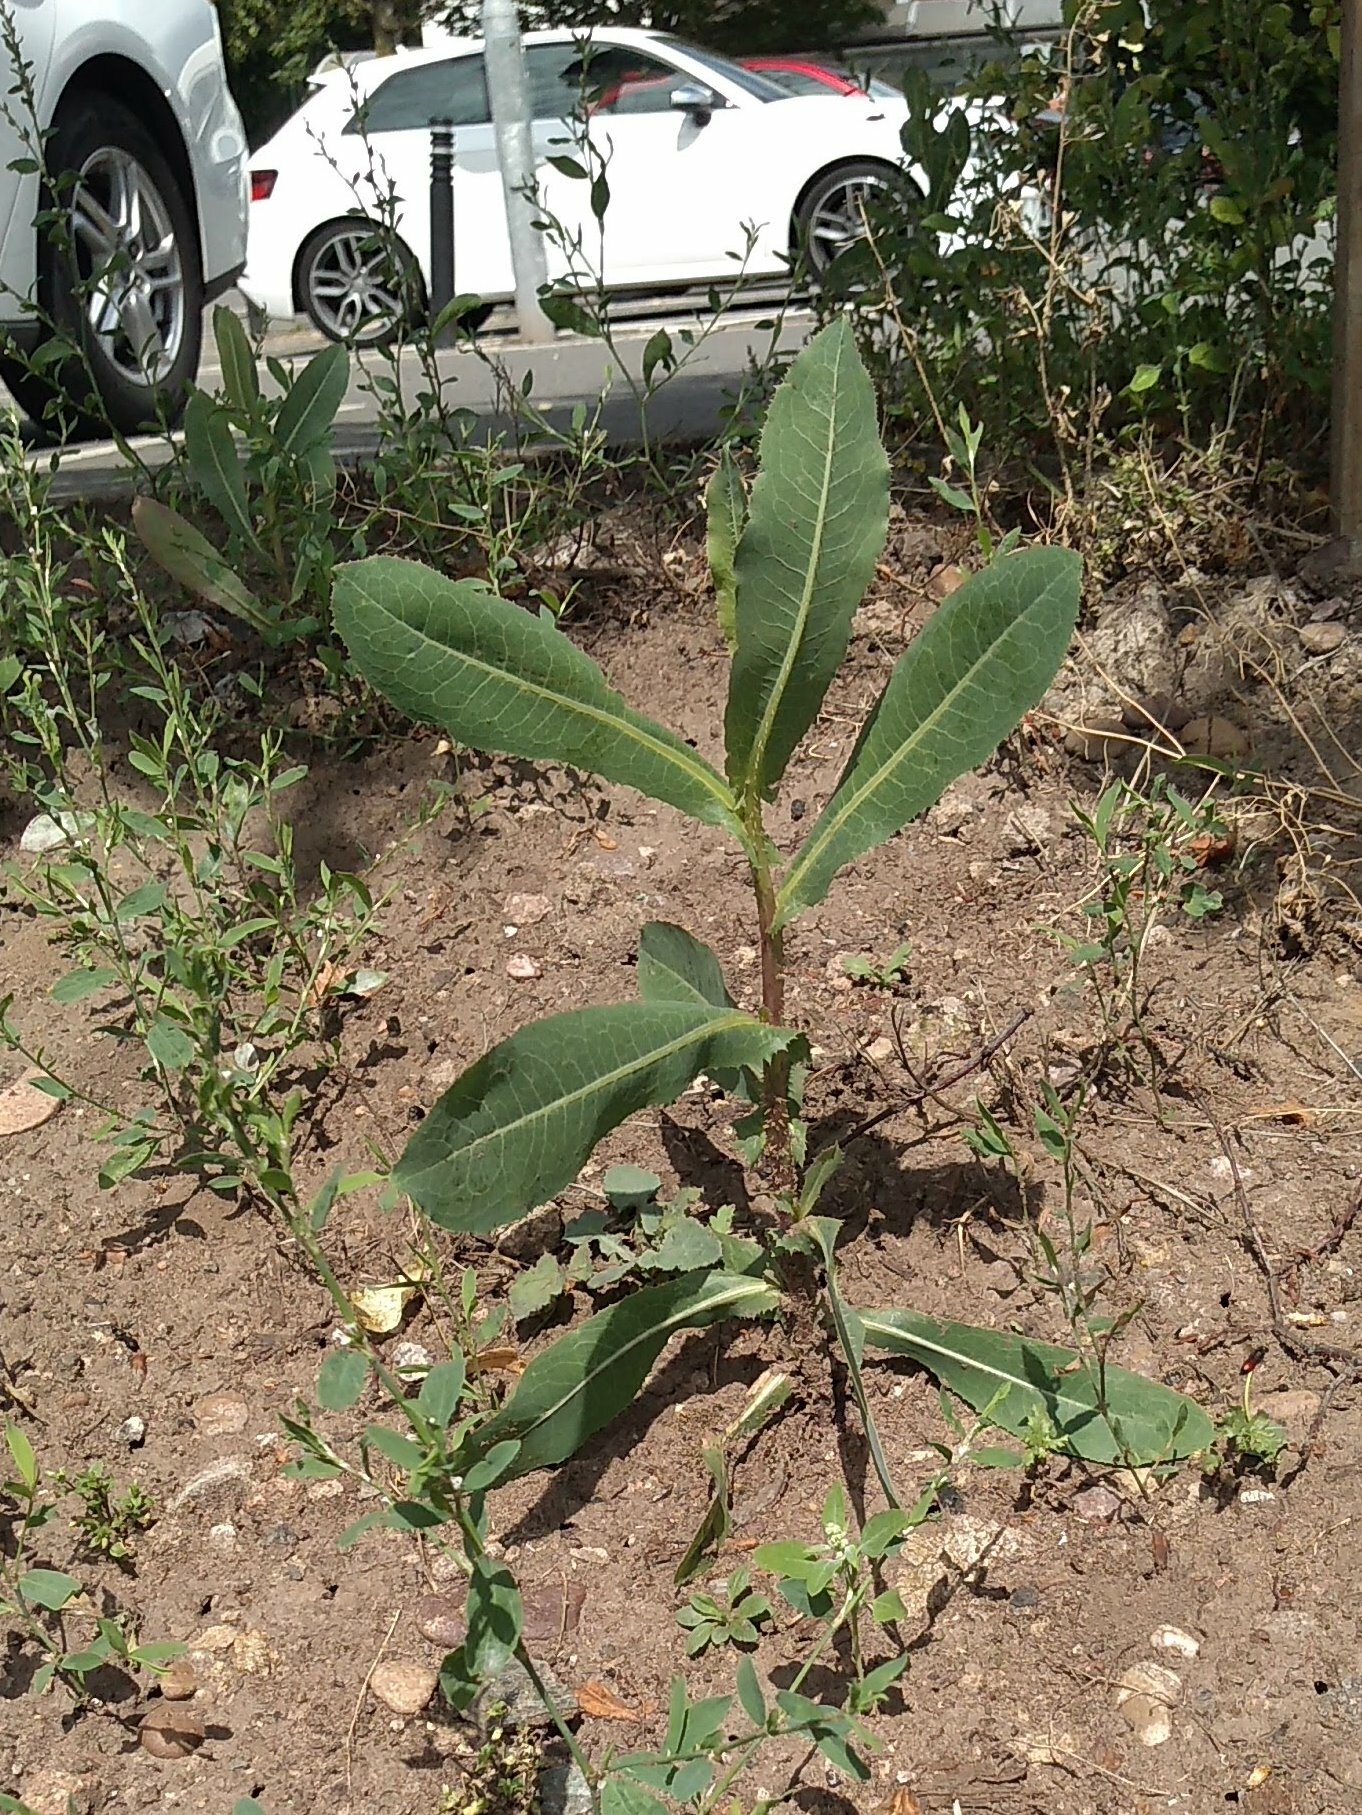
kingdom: Plantae
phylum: Tracheophyta
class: Magnoliopsida
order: Asterales
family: Asteraceae
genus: Lactuca
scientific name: Lactuca serriola
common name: Prickly lettuce
